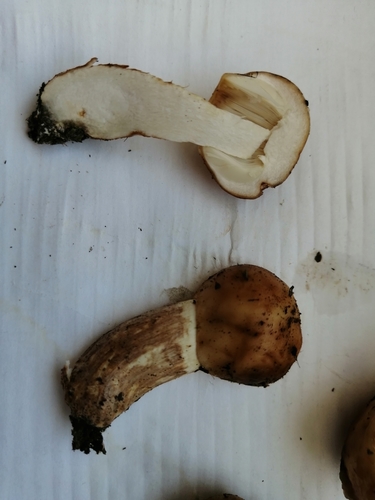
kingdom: Fungi
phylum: Basidiomycota
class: Agaricomycetes
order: Russulales
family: Russulaceae
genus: Russula
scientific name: Russula foetens
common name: Foetid russula
